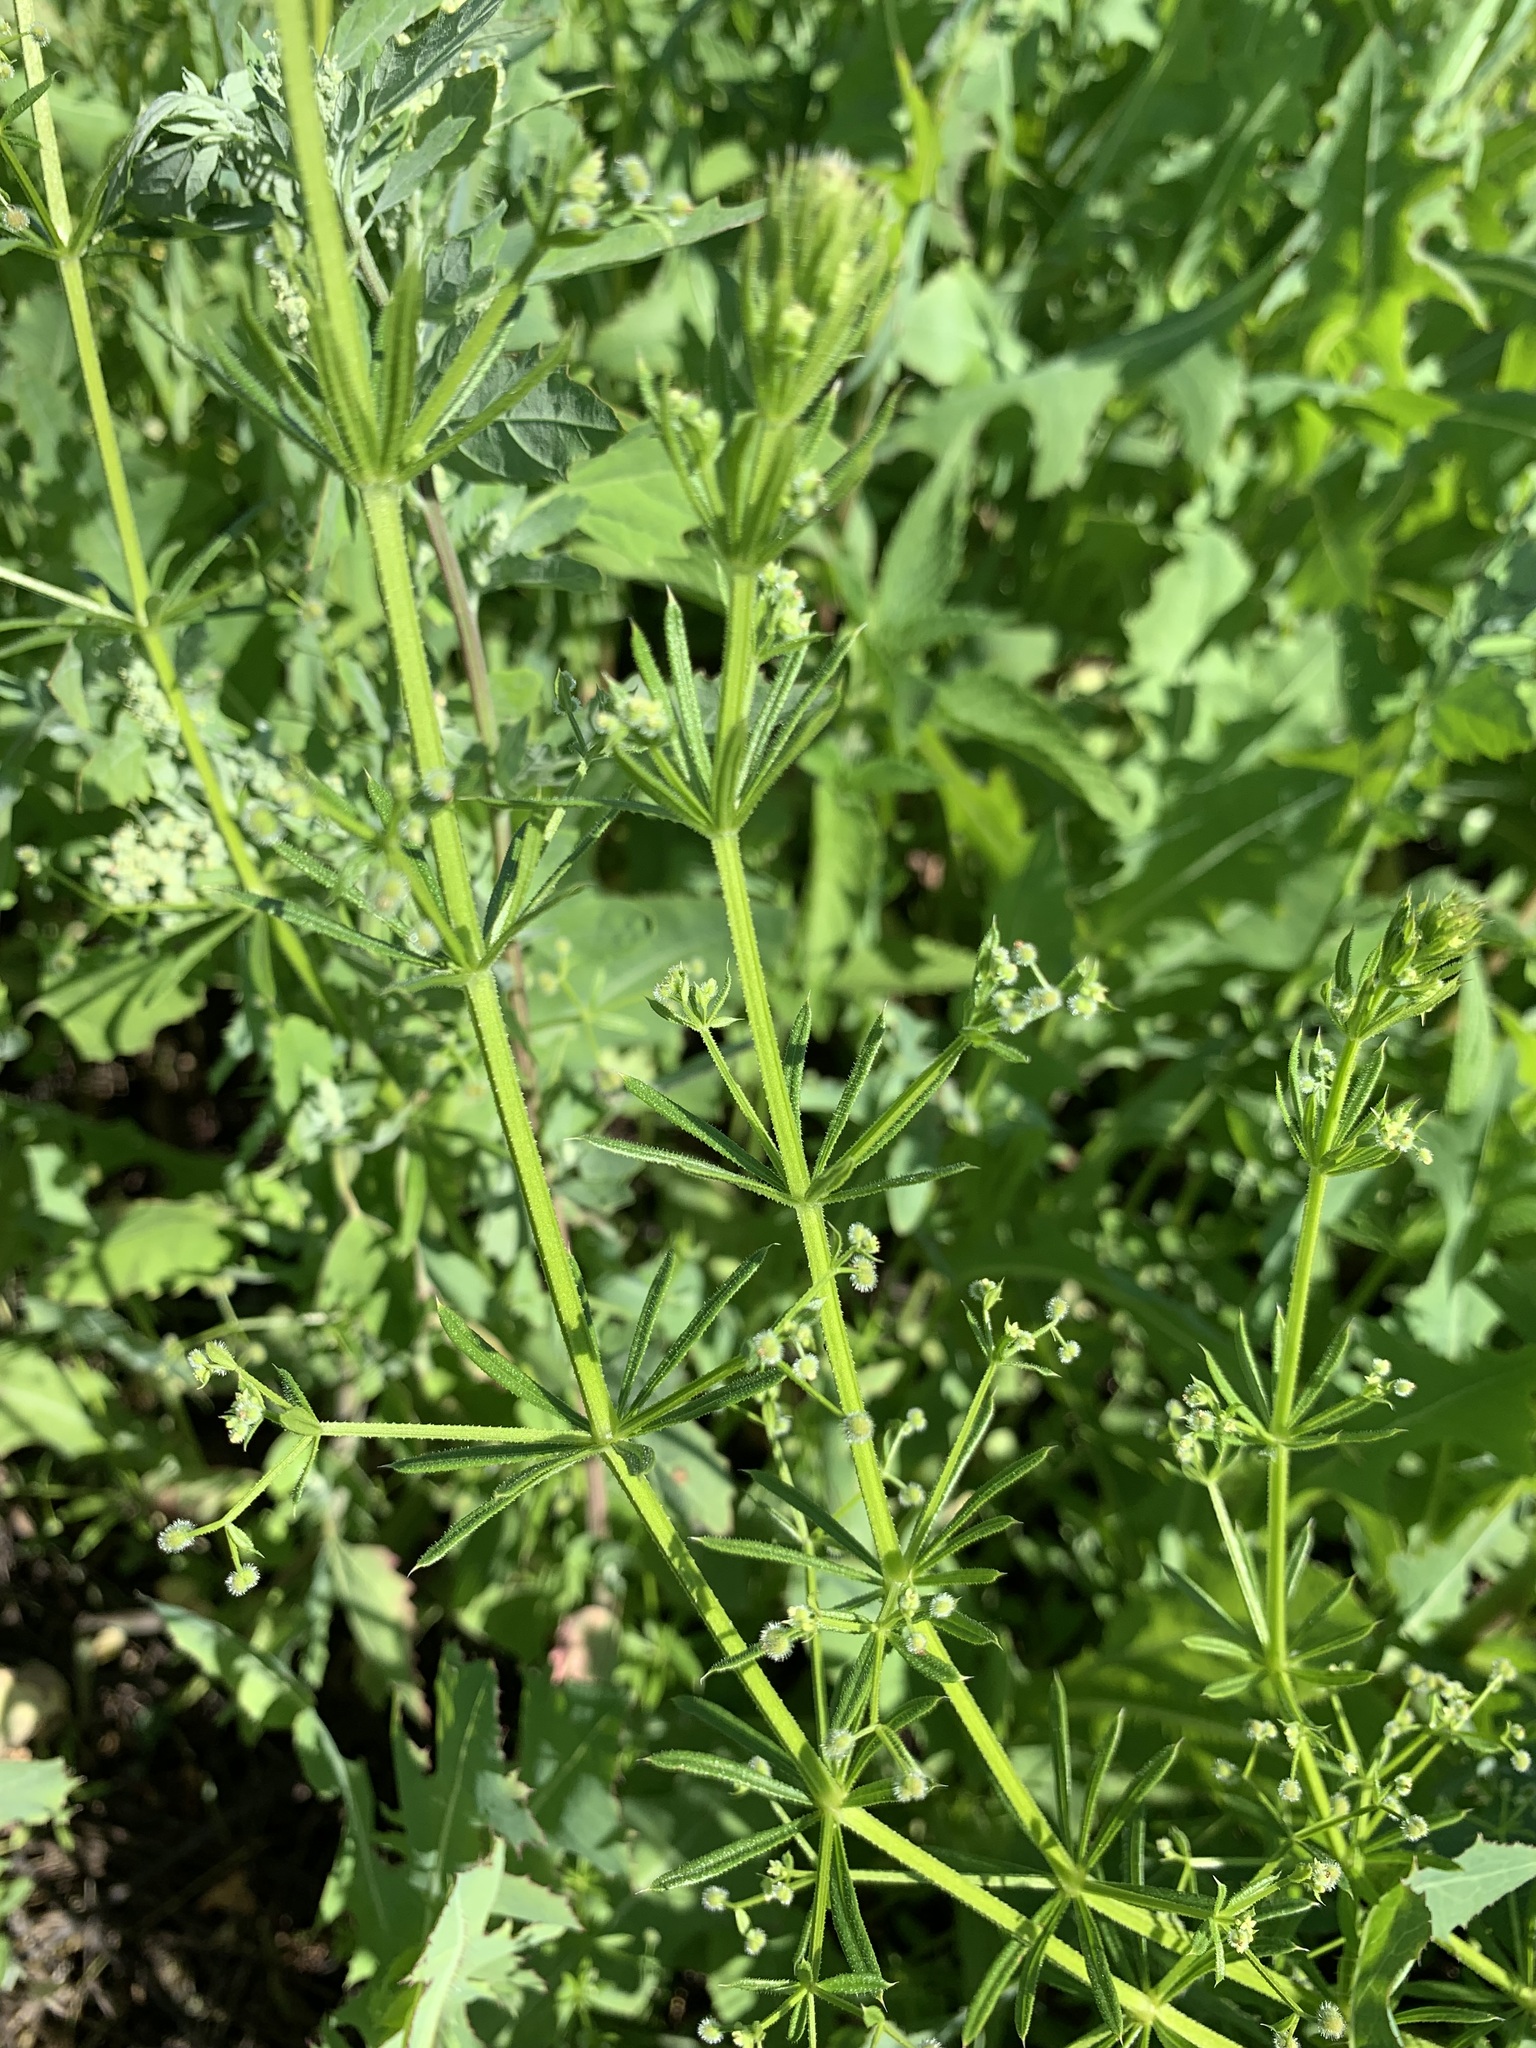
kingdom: Plantae
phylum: Tracheophyta
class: Magnoliopsida
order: Gentianales
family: Rubiaceae
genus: Galium
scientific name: Galium
